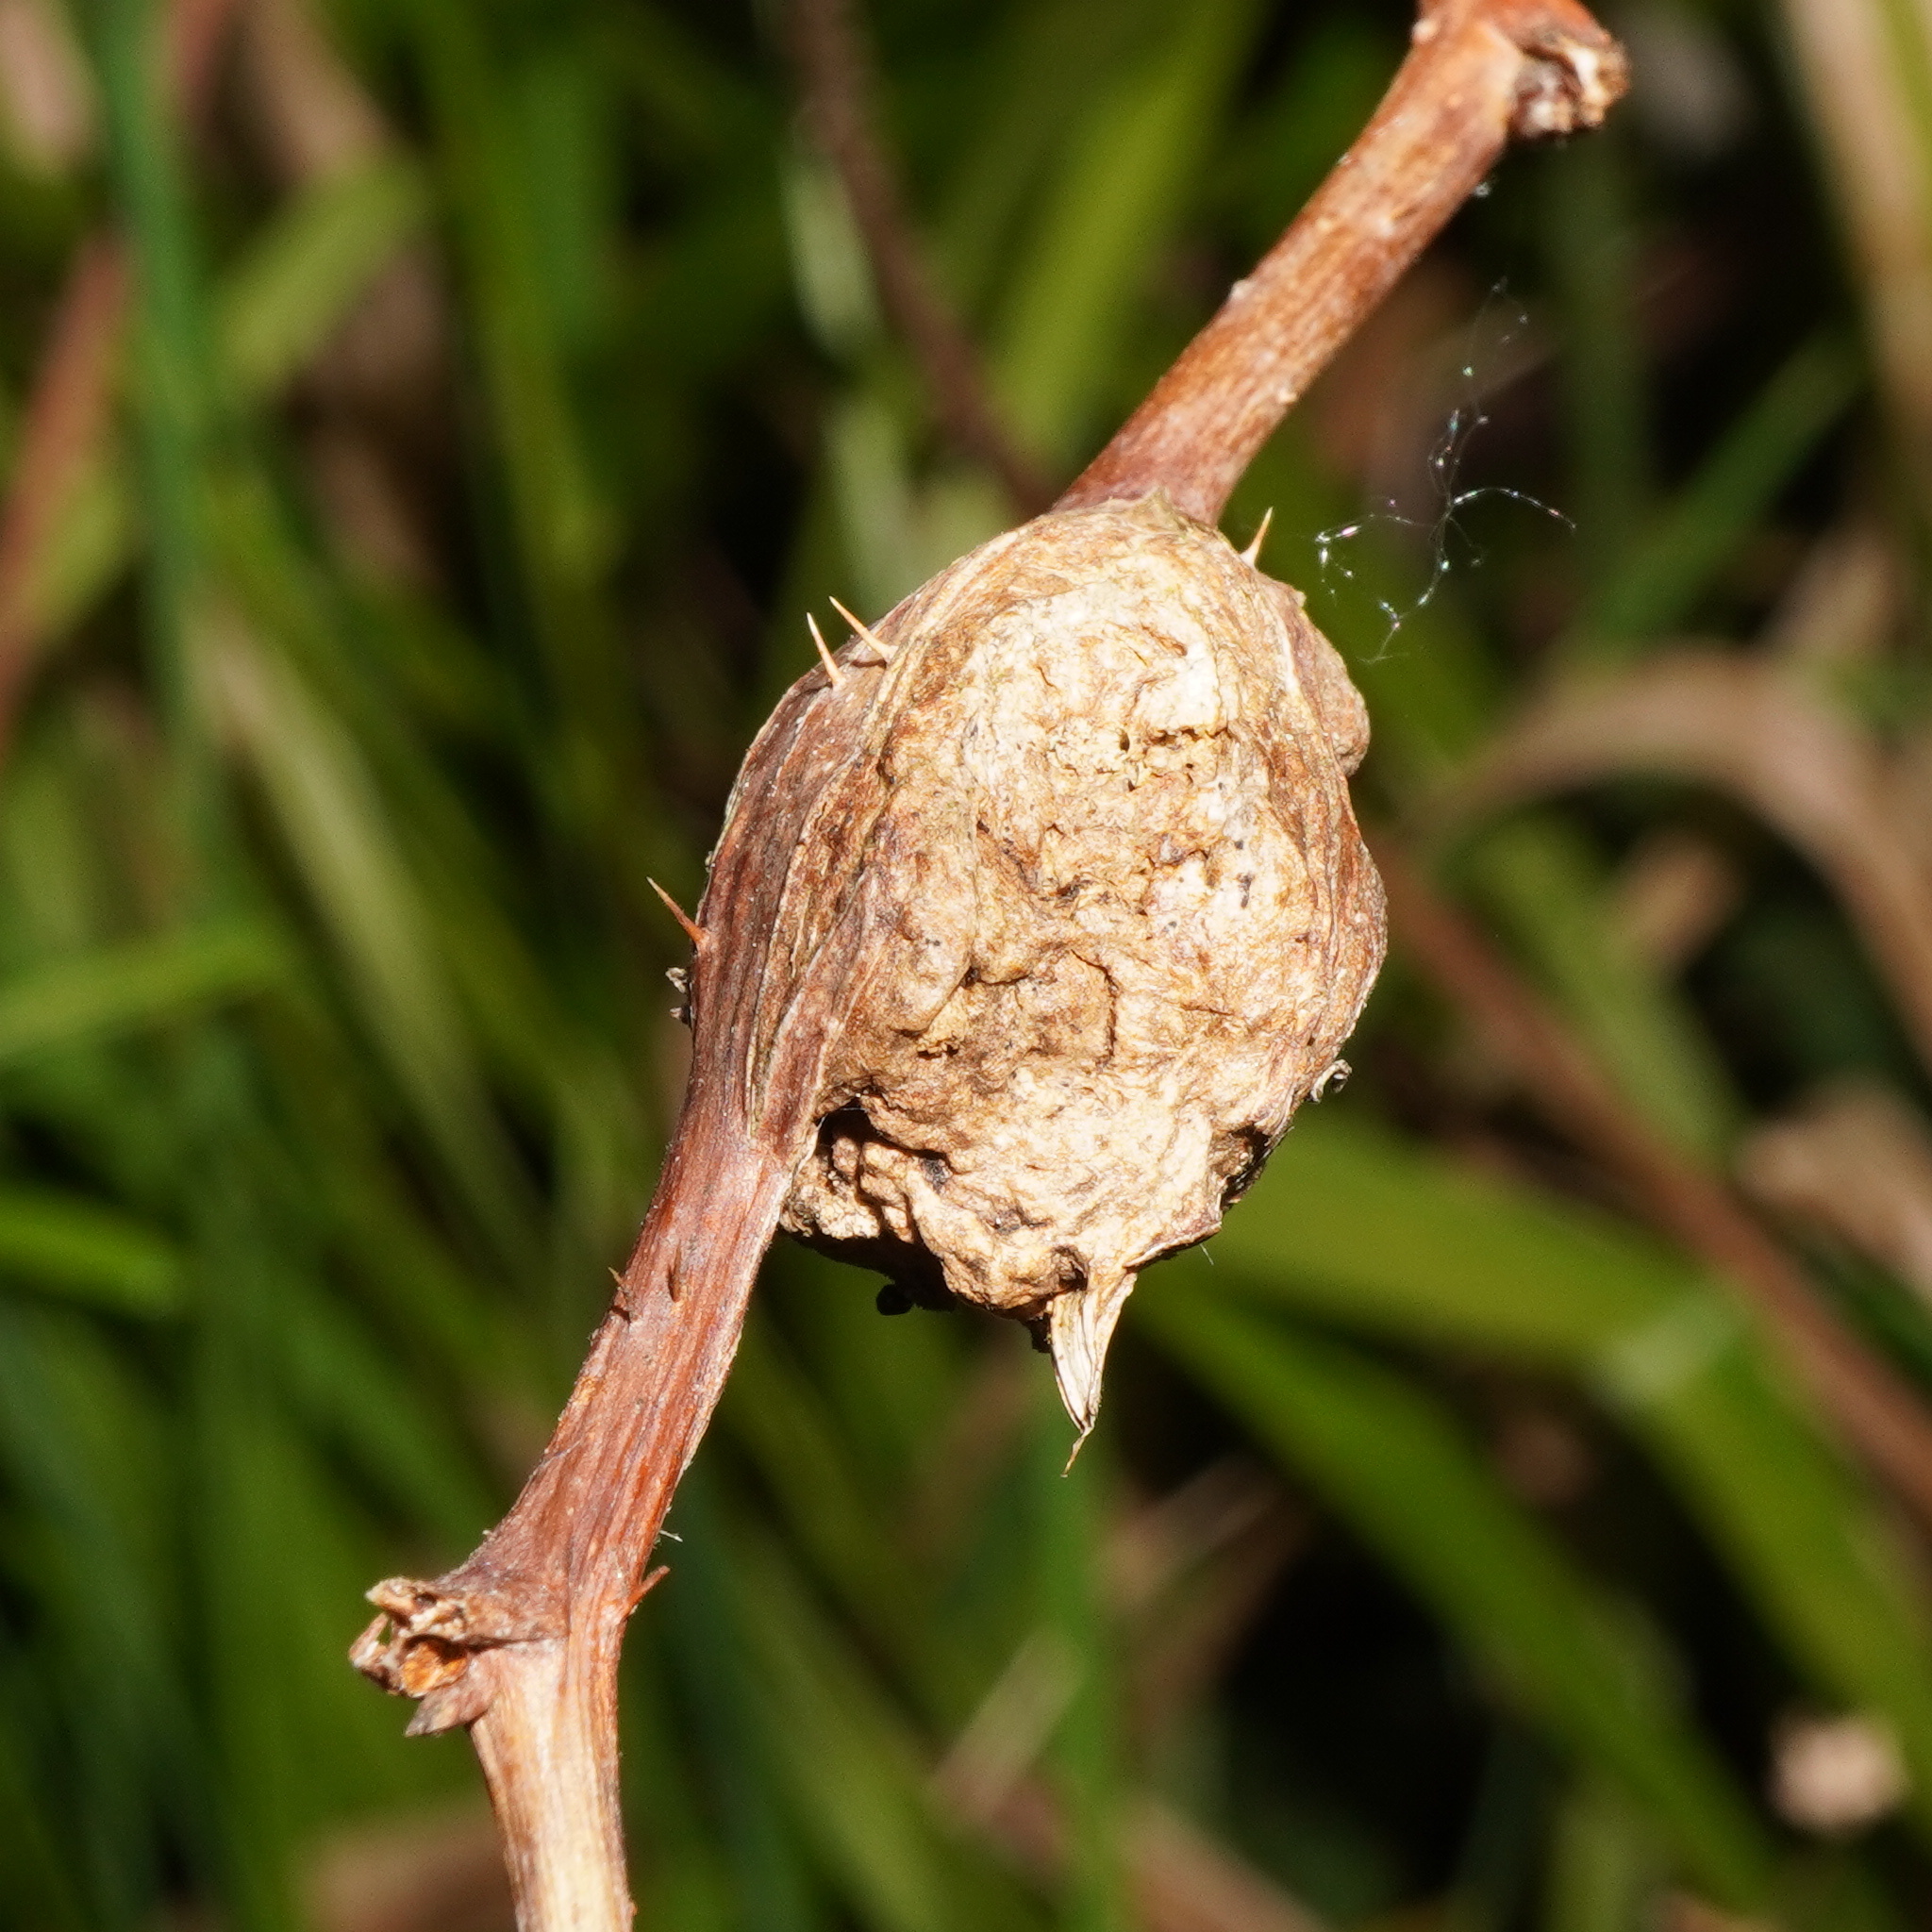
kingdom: Animalia
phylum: Arthropoda
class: Insecta
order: Diptera
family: Cecidomyiidae
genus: Lasioptera
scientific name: Lasioptera rubi
